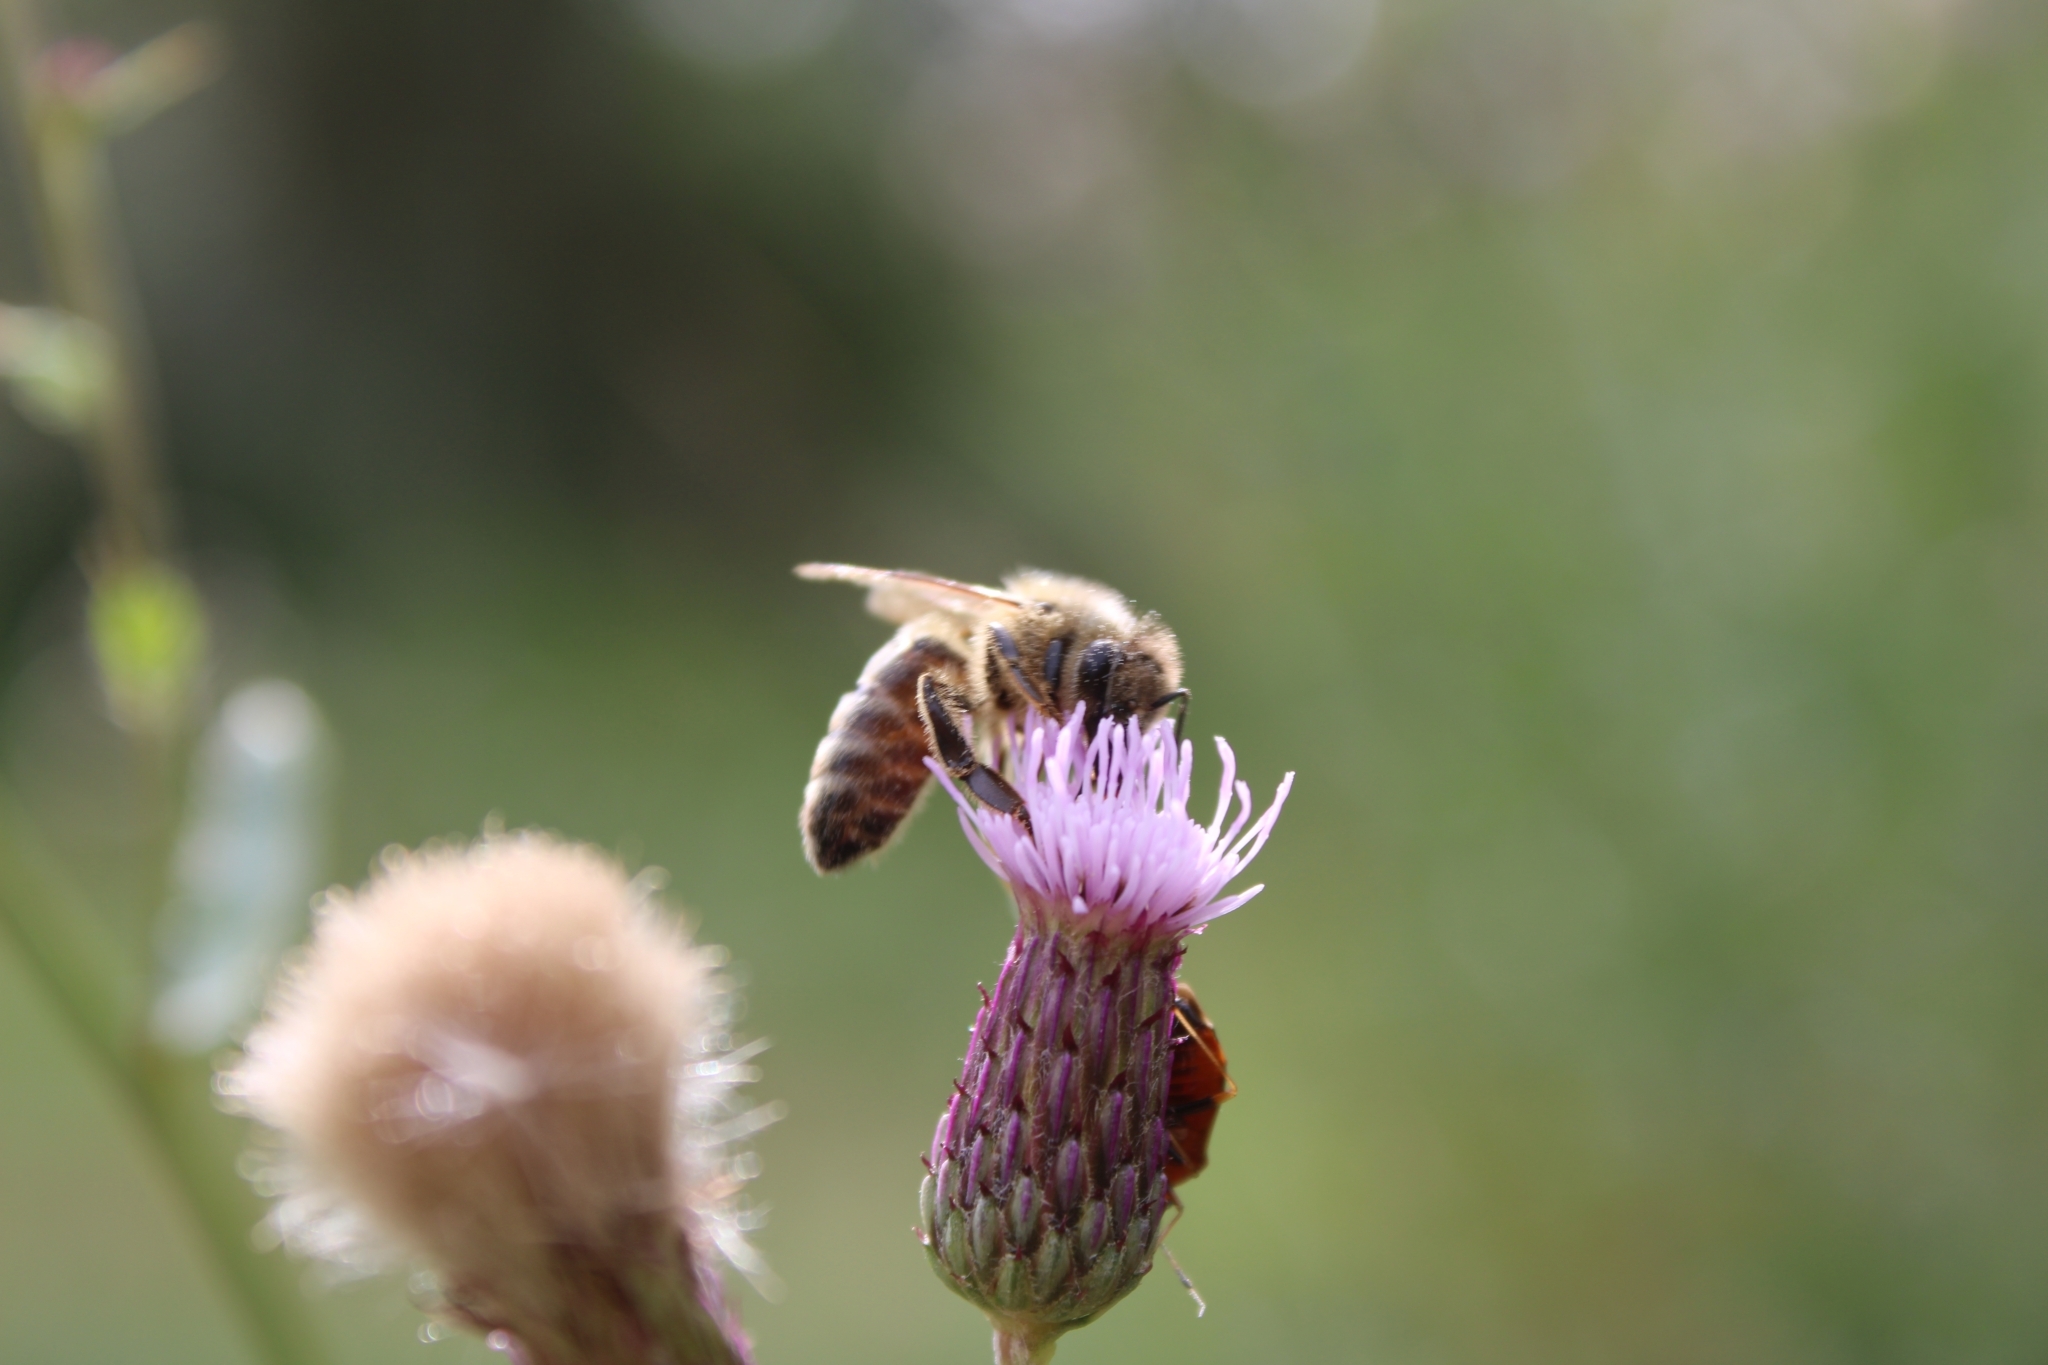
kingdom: Animalia
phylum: Arthropoda
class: Insecta
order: Hymenoptera
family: Apidae
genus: Apis
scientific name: Apis mellifera
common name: Honey bee
